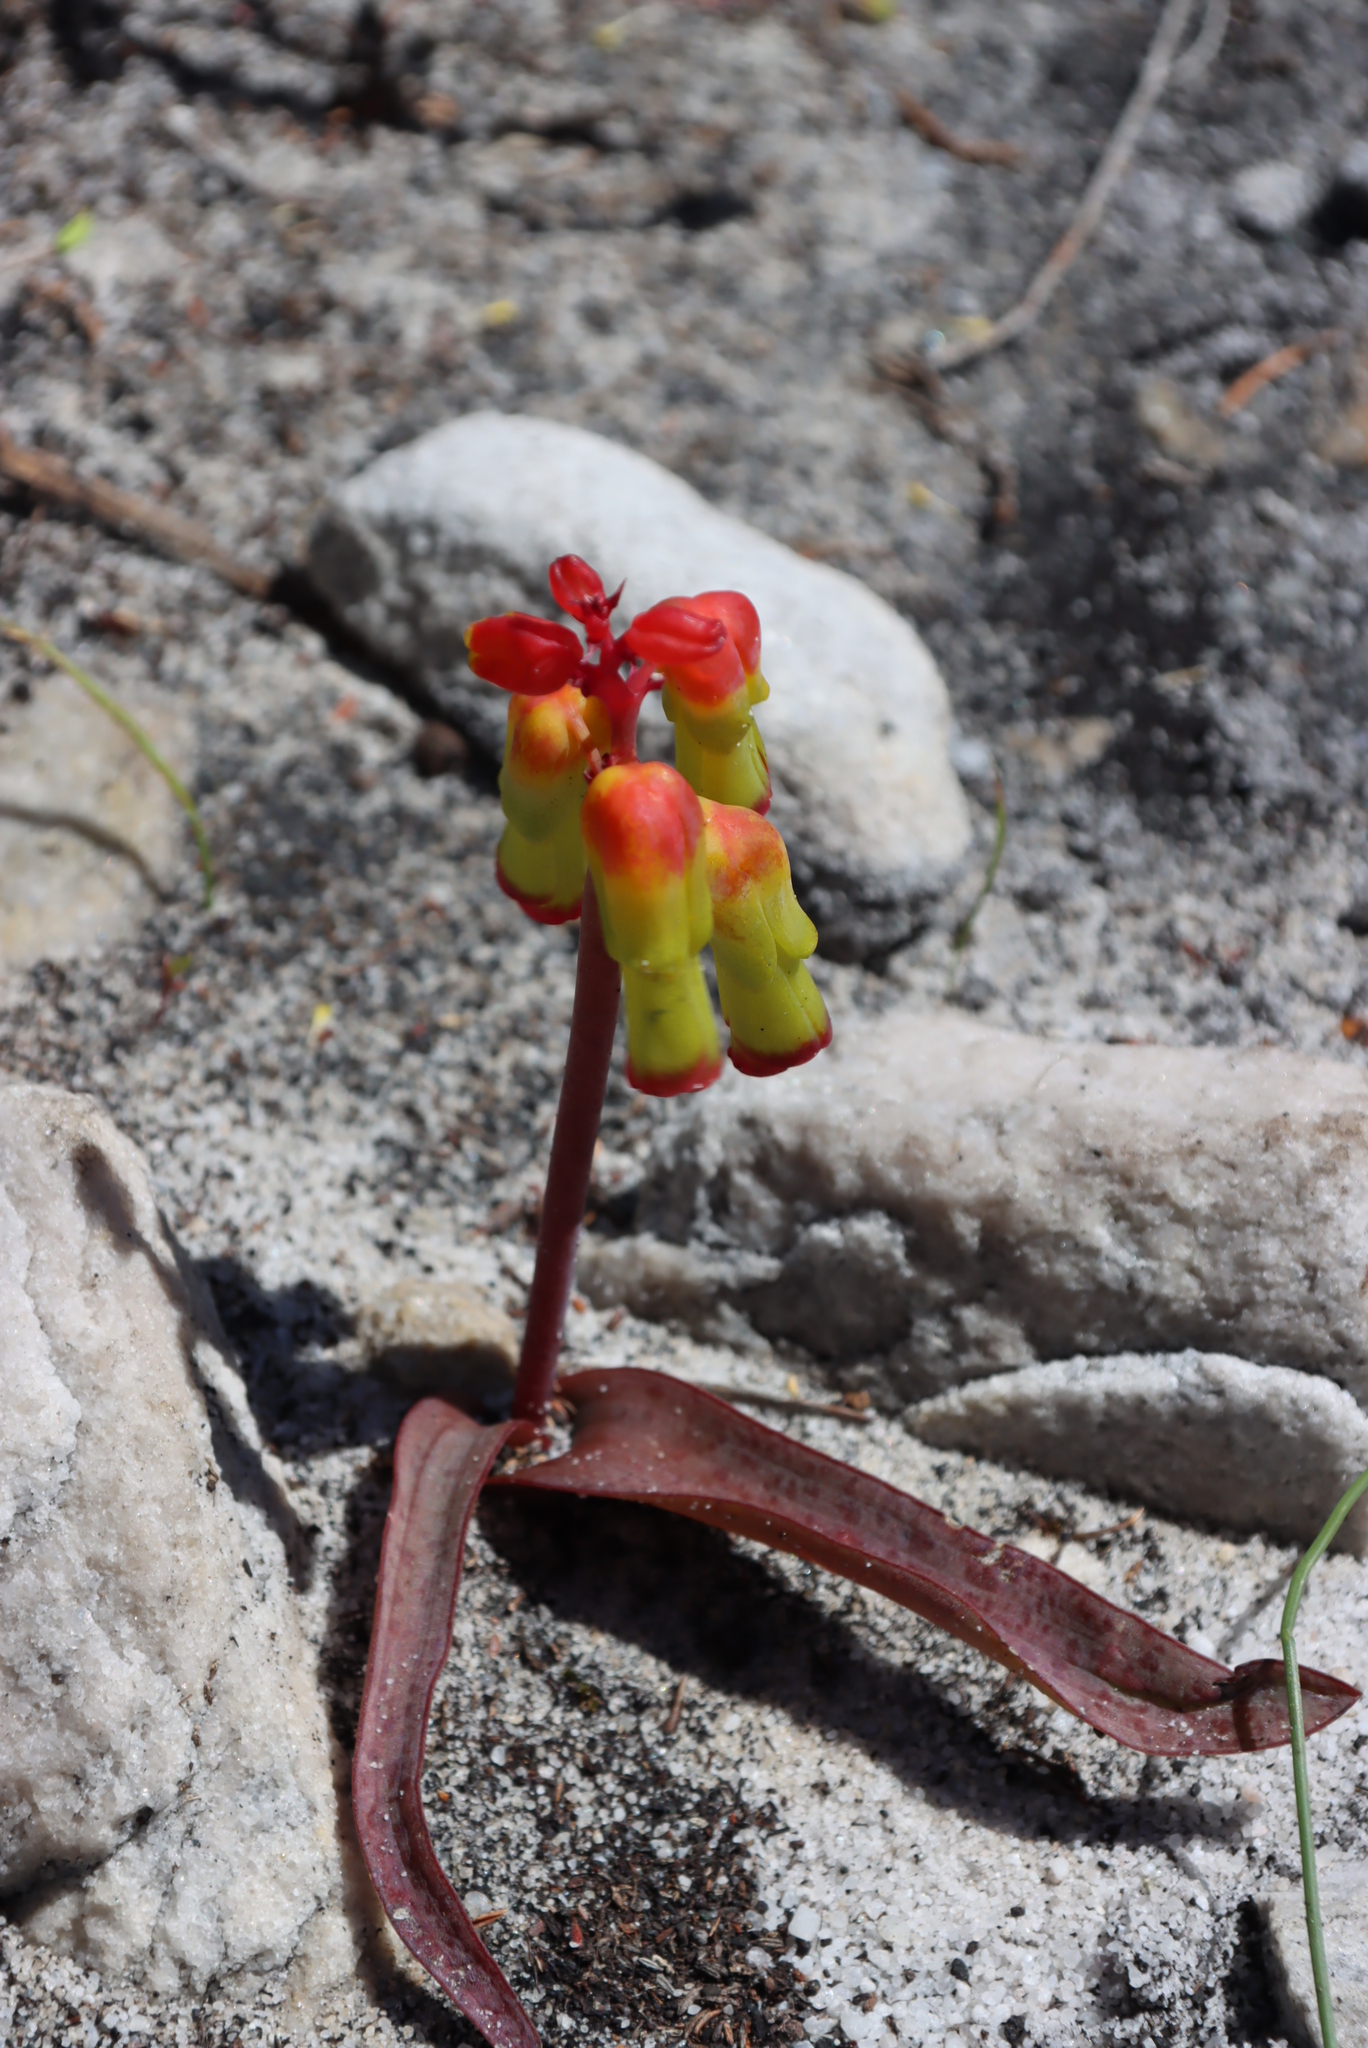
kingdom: Plantae
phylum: Tracheophyta
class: Liliopsida
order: Asparagales
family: Asparagaceae
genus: Lachenalia
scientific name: Lachenalia luteola
